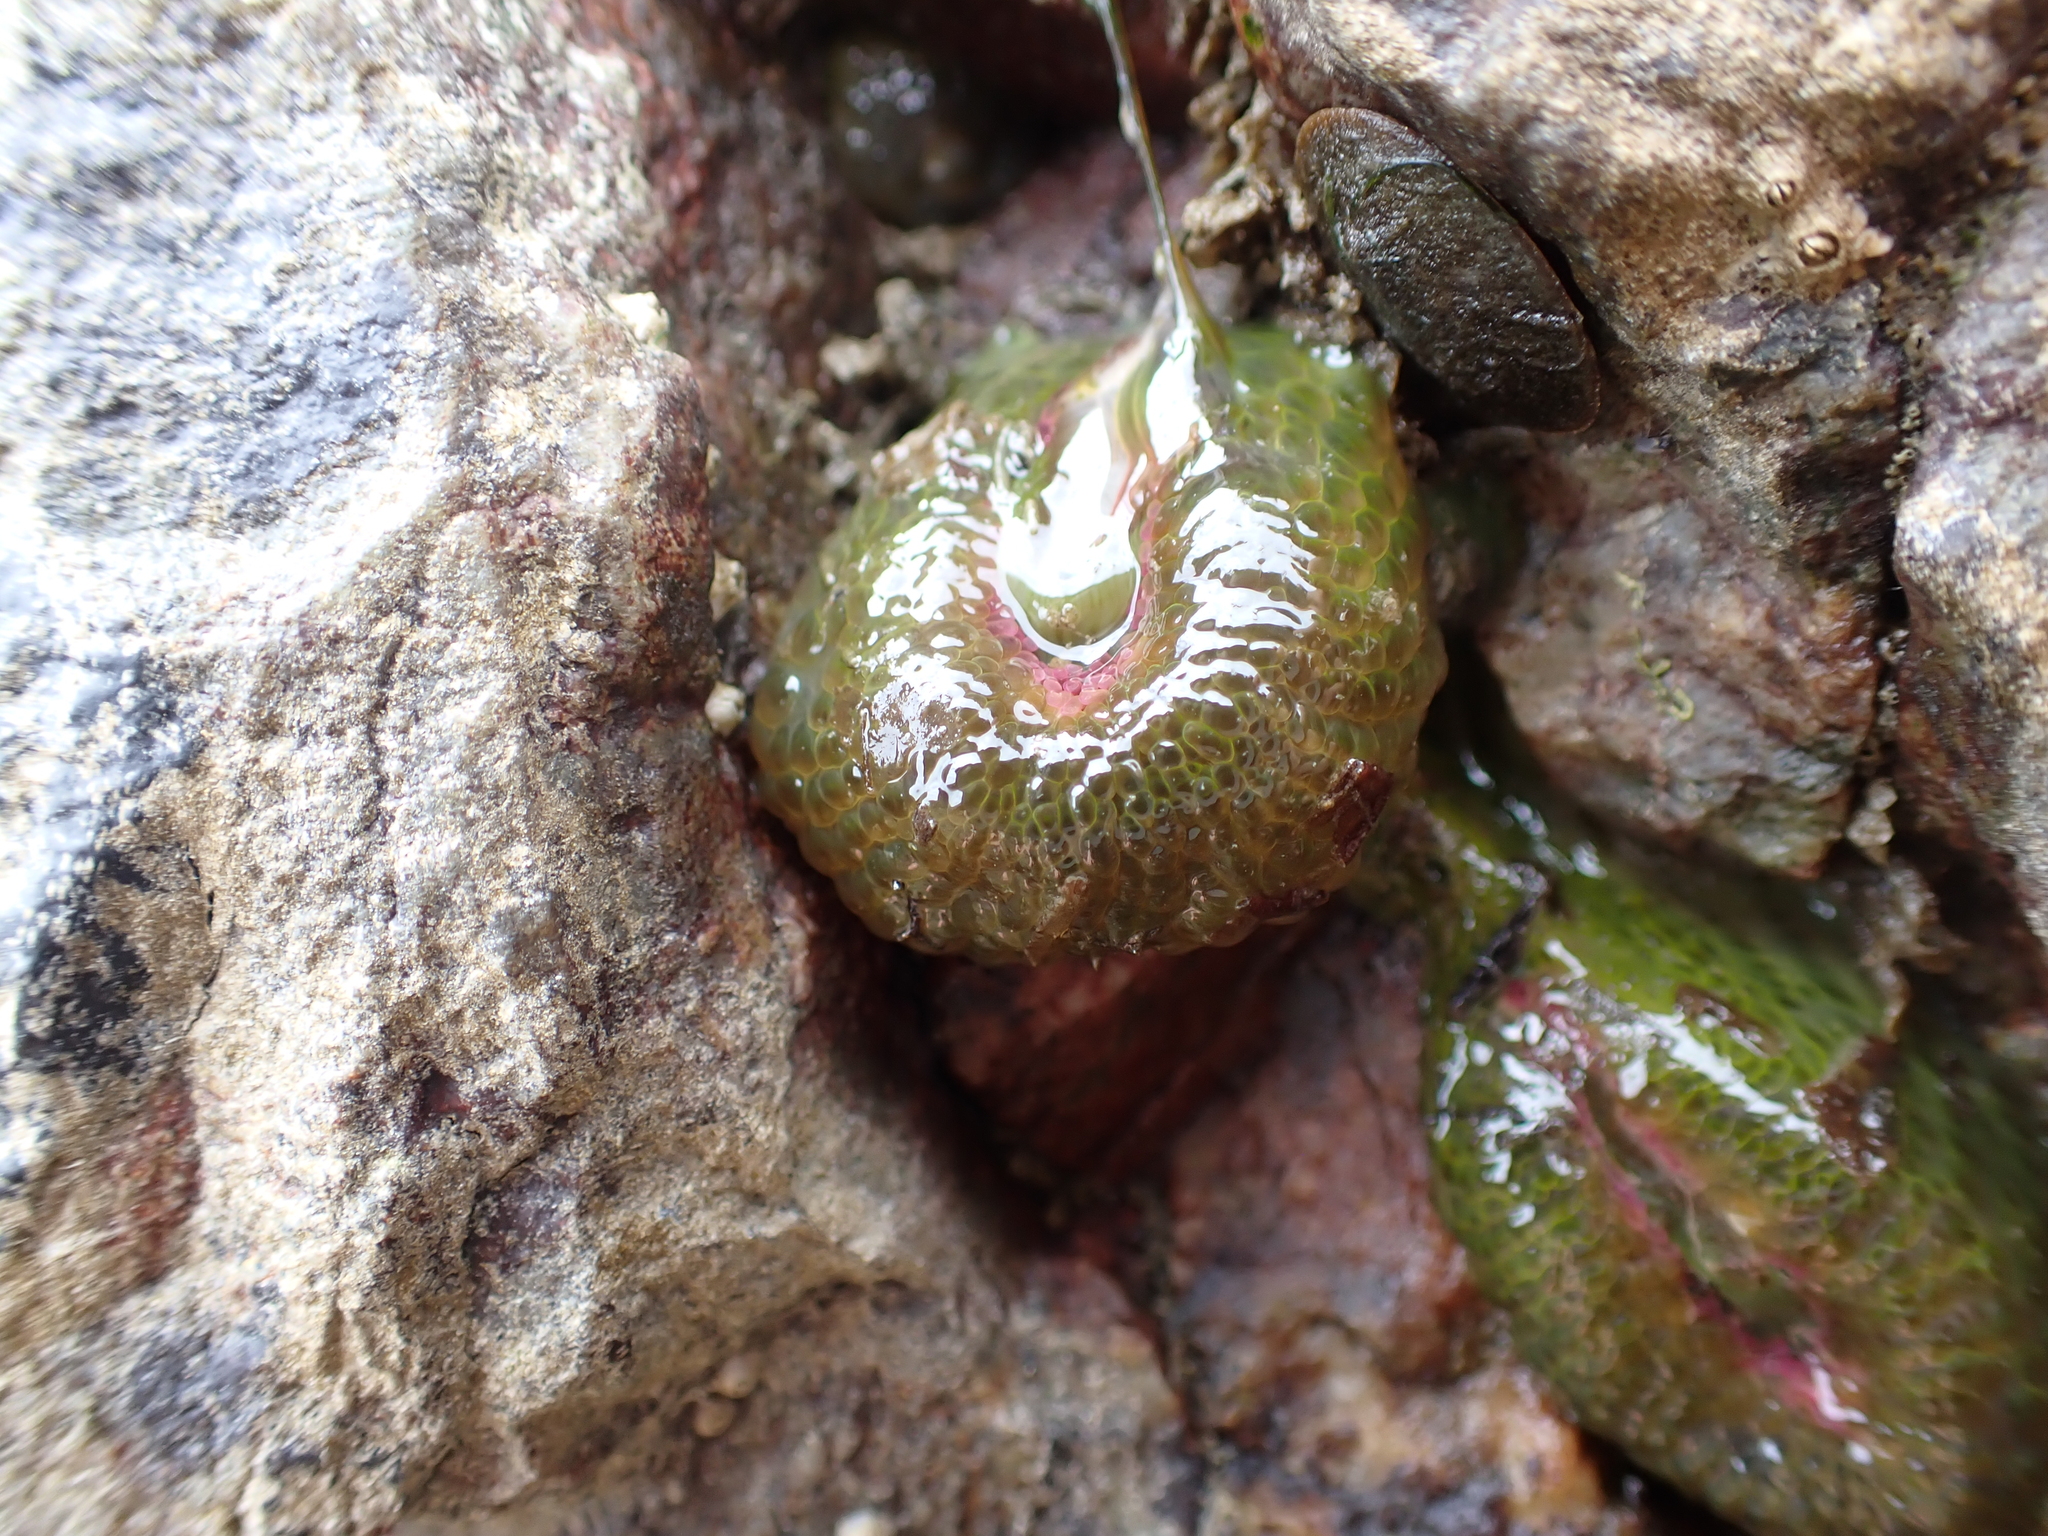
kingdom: Animalia
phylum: Cnidaria
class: Anthozoa
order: Actiniaria
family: Actiniidae
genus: Anthopleura
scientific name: Anthopleura elegantissima
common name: Clonal anemone
